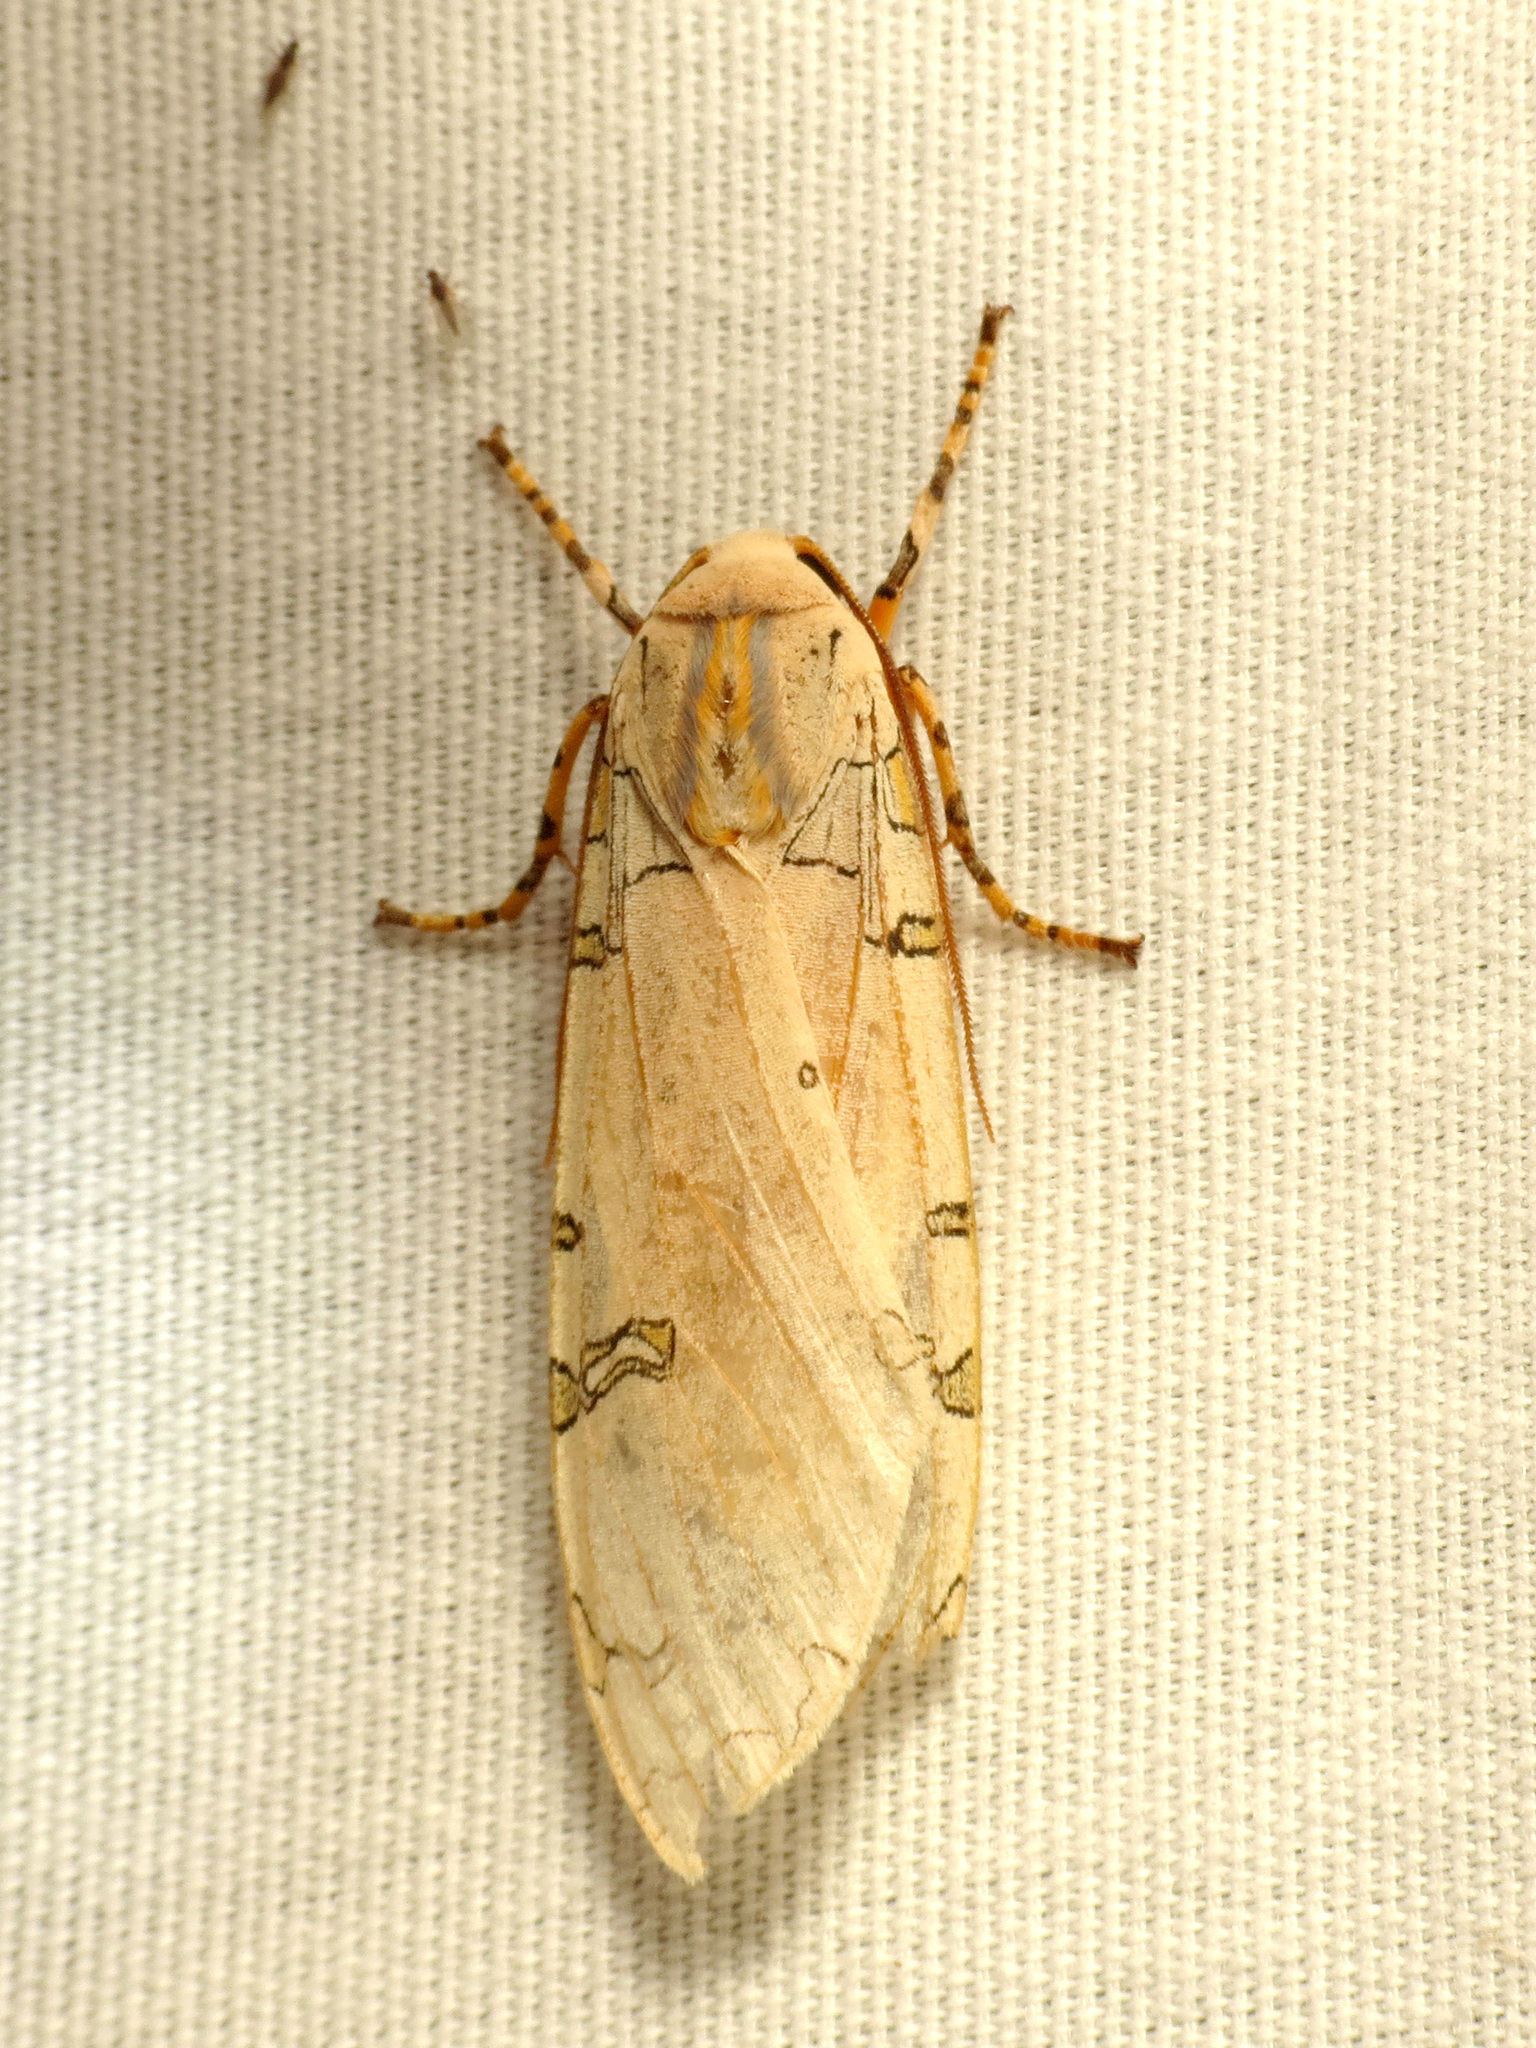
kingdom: Animalia
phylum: Arthropoda
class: Insecta
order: Lepidoptera
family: Erebidae
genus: Halysidota
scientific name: Halysidota davisii
